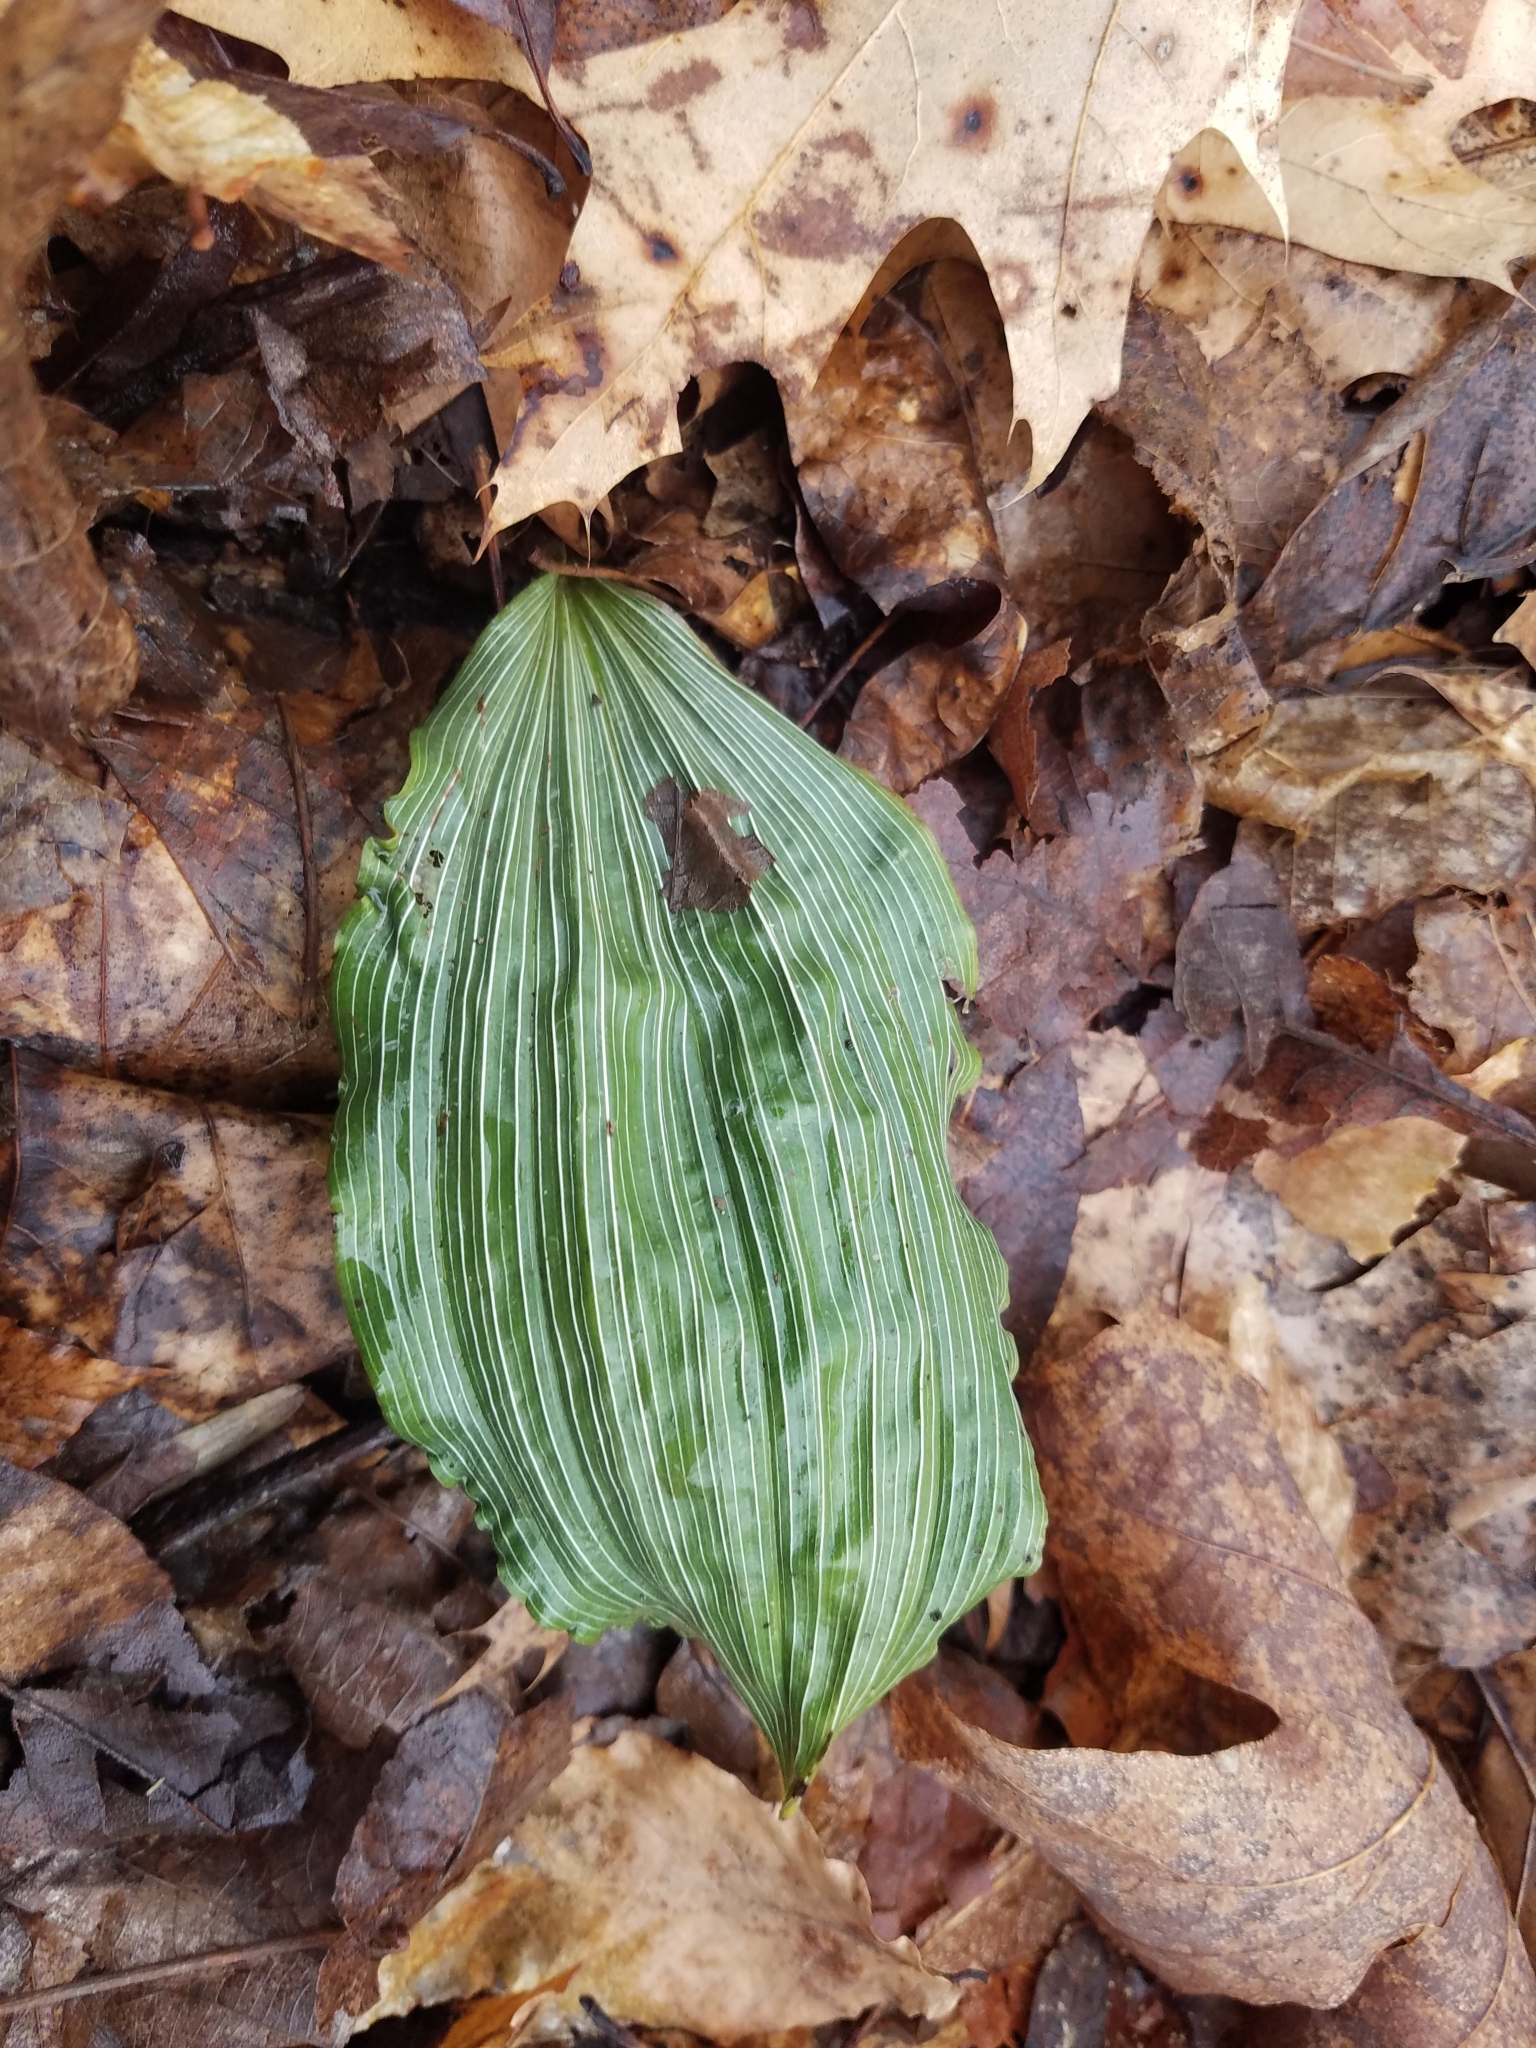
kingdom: Plantae
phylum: Tracheophyta
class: Liliopsida
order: Asparagales
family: Orchidaceae
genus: Aplectrum
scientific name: Aplectrum hyemale
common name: Adam-and-eve
